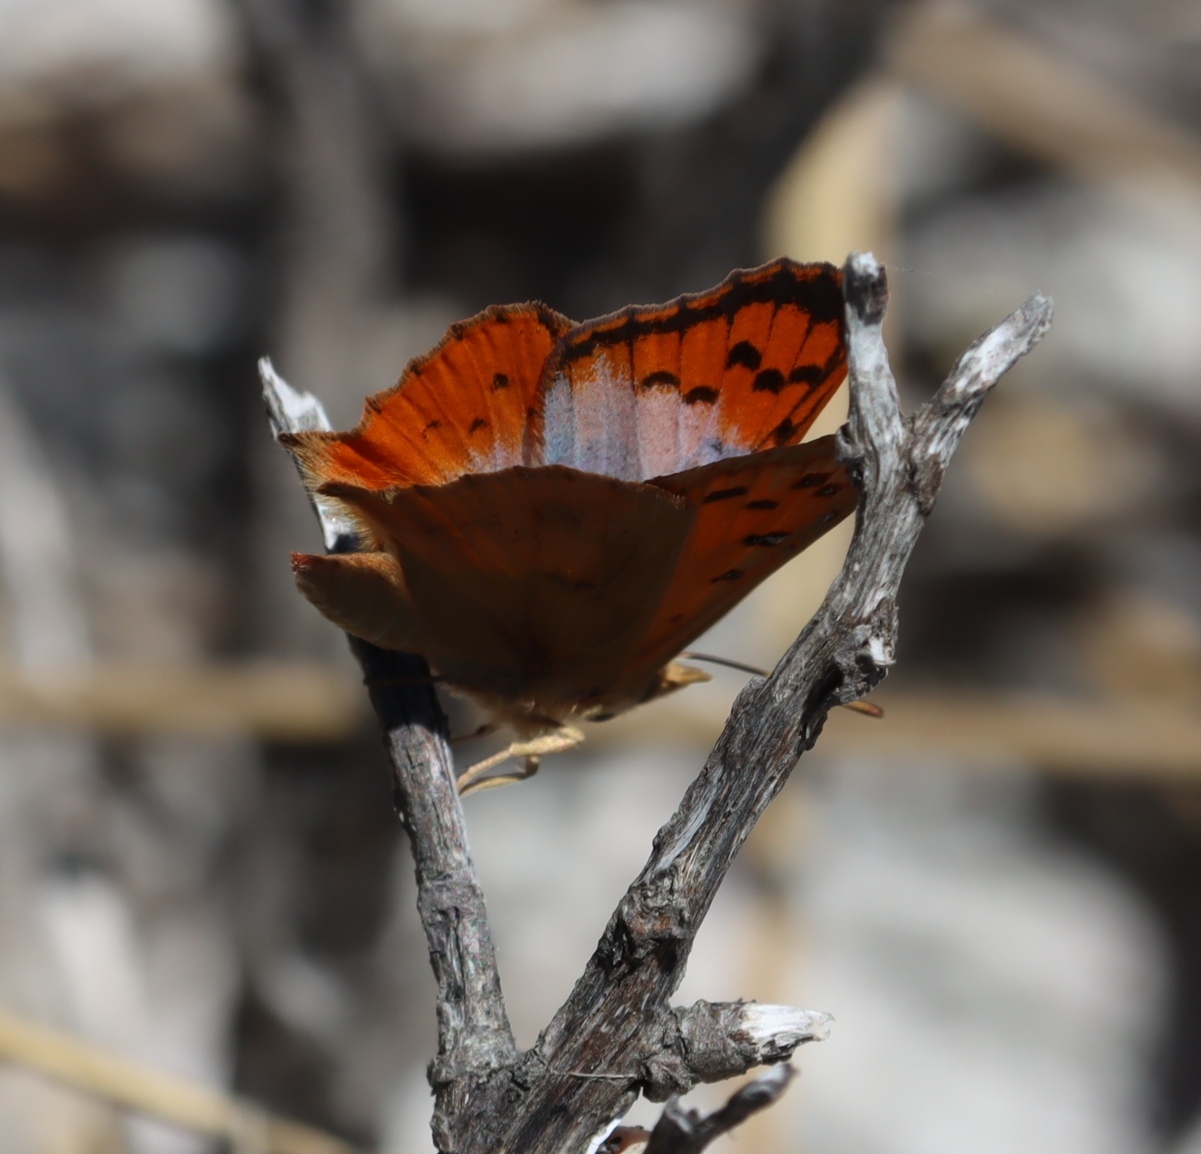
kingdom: Animalia
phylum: Arthropoda
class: Insecta
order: Lepidoptera
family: Lycaenidae
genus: Chrysoritis
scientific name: Chrysoritis thysbe
